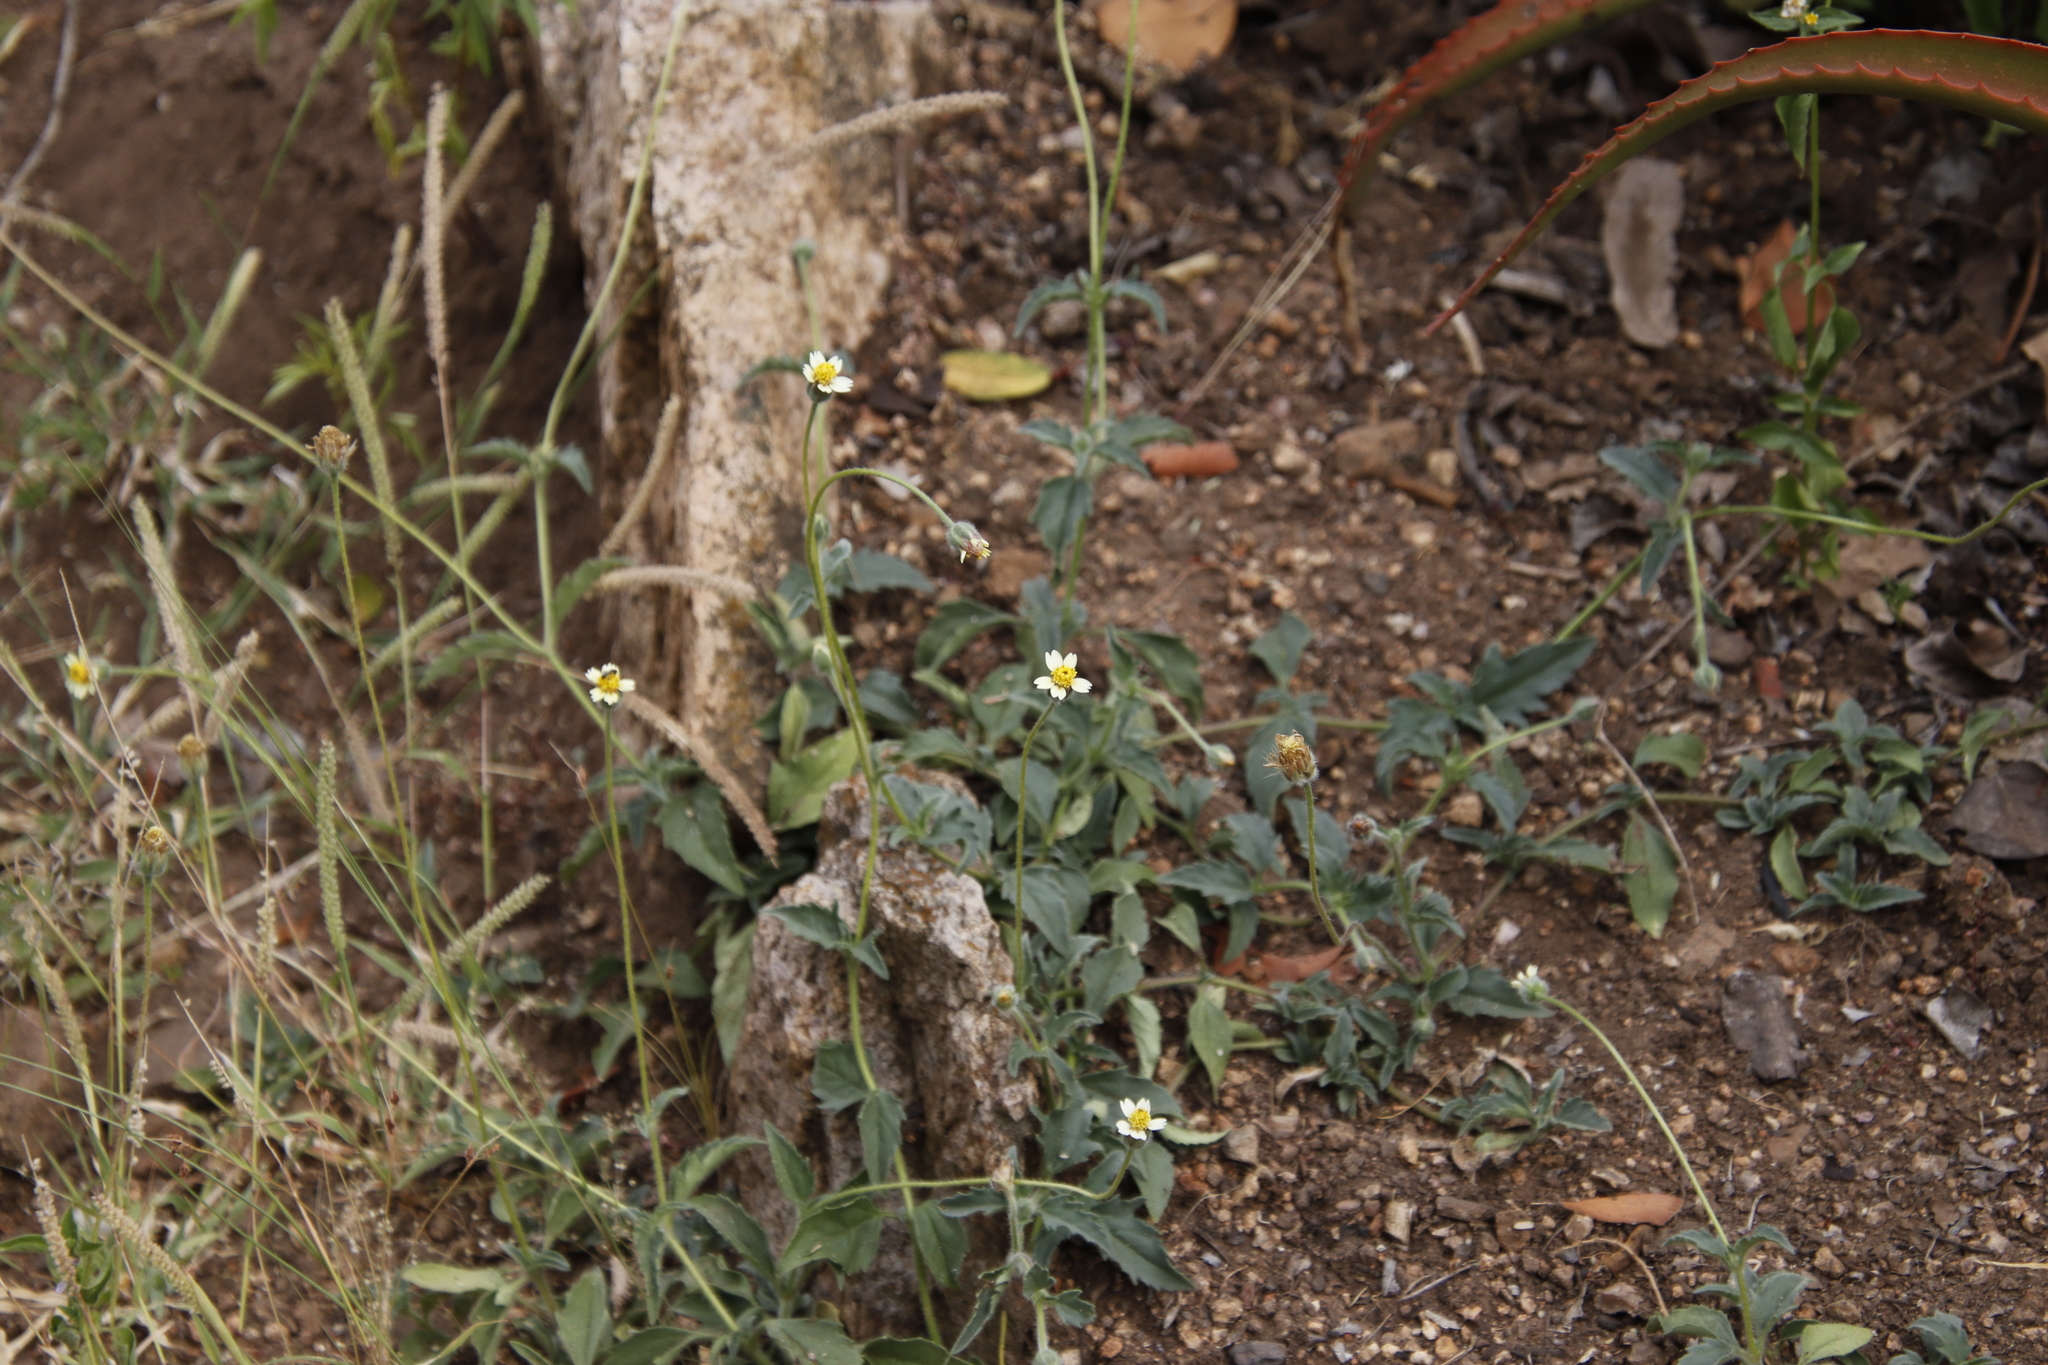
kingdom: Plantae
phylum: Tracheophyta
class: Magnoliopsida
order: Asterales
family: Asteraceae
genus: Tridax
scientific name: Tridax procumbens
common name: Coatbuttons
